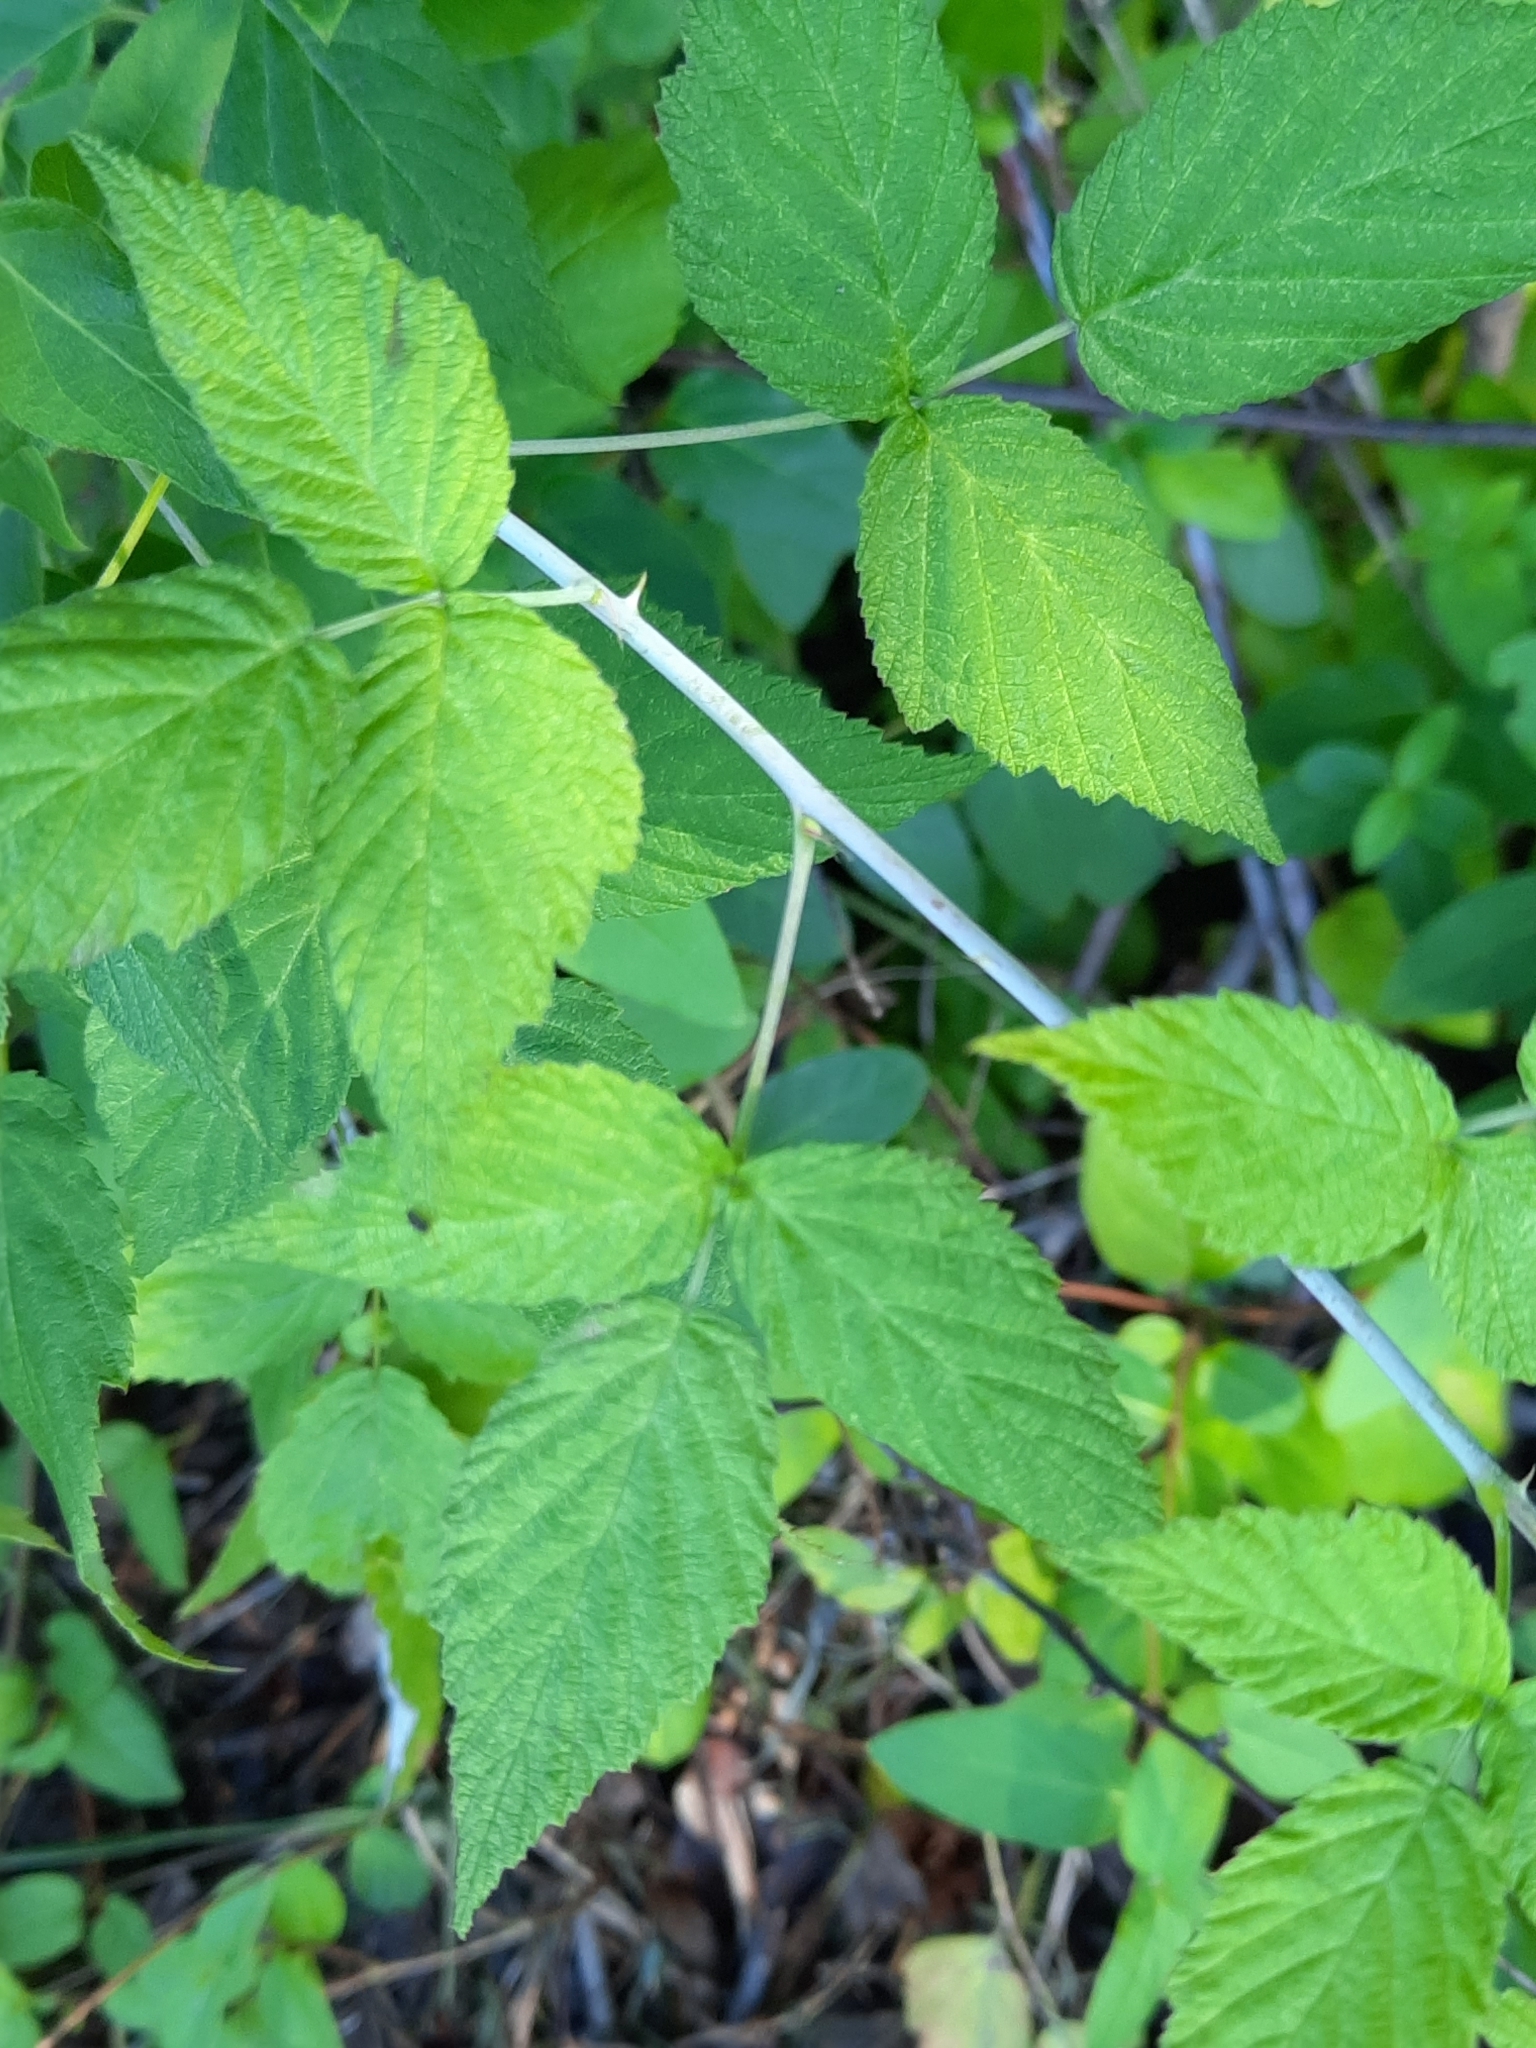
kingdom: Plantae
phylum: Tracheophyta
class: Magnoliopsida
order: Rosales
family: Rosaceae
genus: Rubus
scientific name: Rubus occidentalis
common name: Black raspberry
